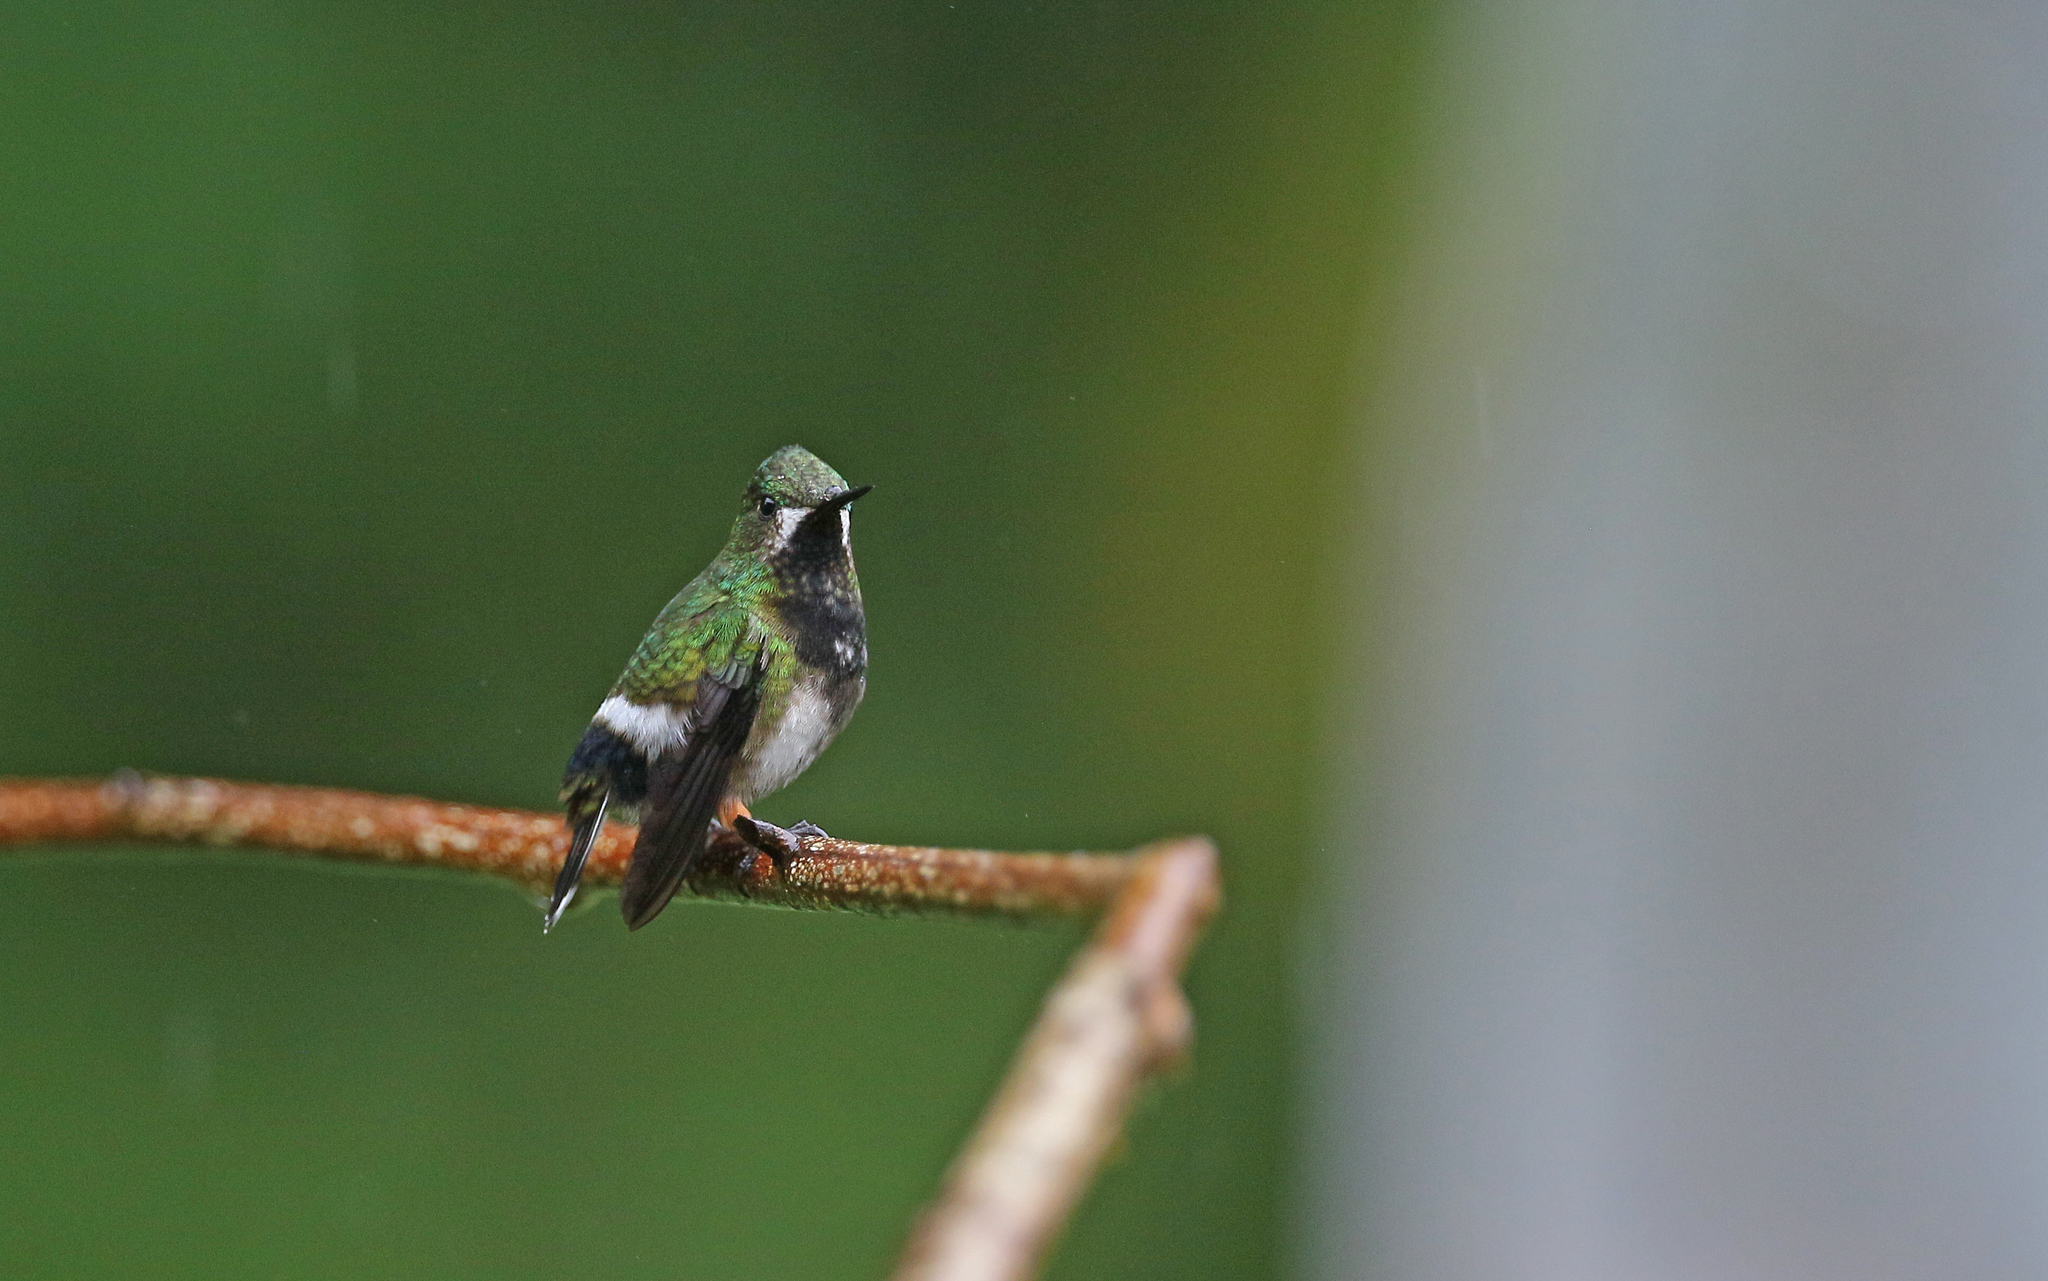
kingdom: Animalia
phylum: Chordata
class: Aves
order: Apodiformes
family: Trochilidae
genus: Discosura
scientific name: Discosura popelairii
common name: Wire-crested thorntail
